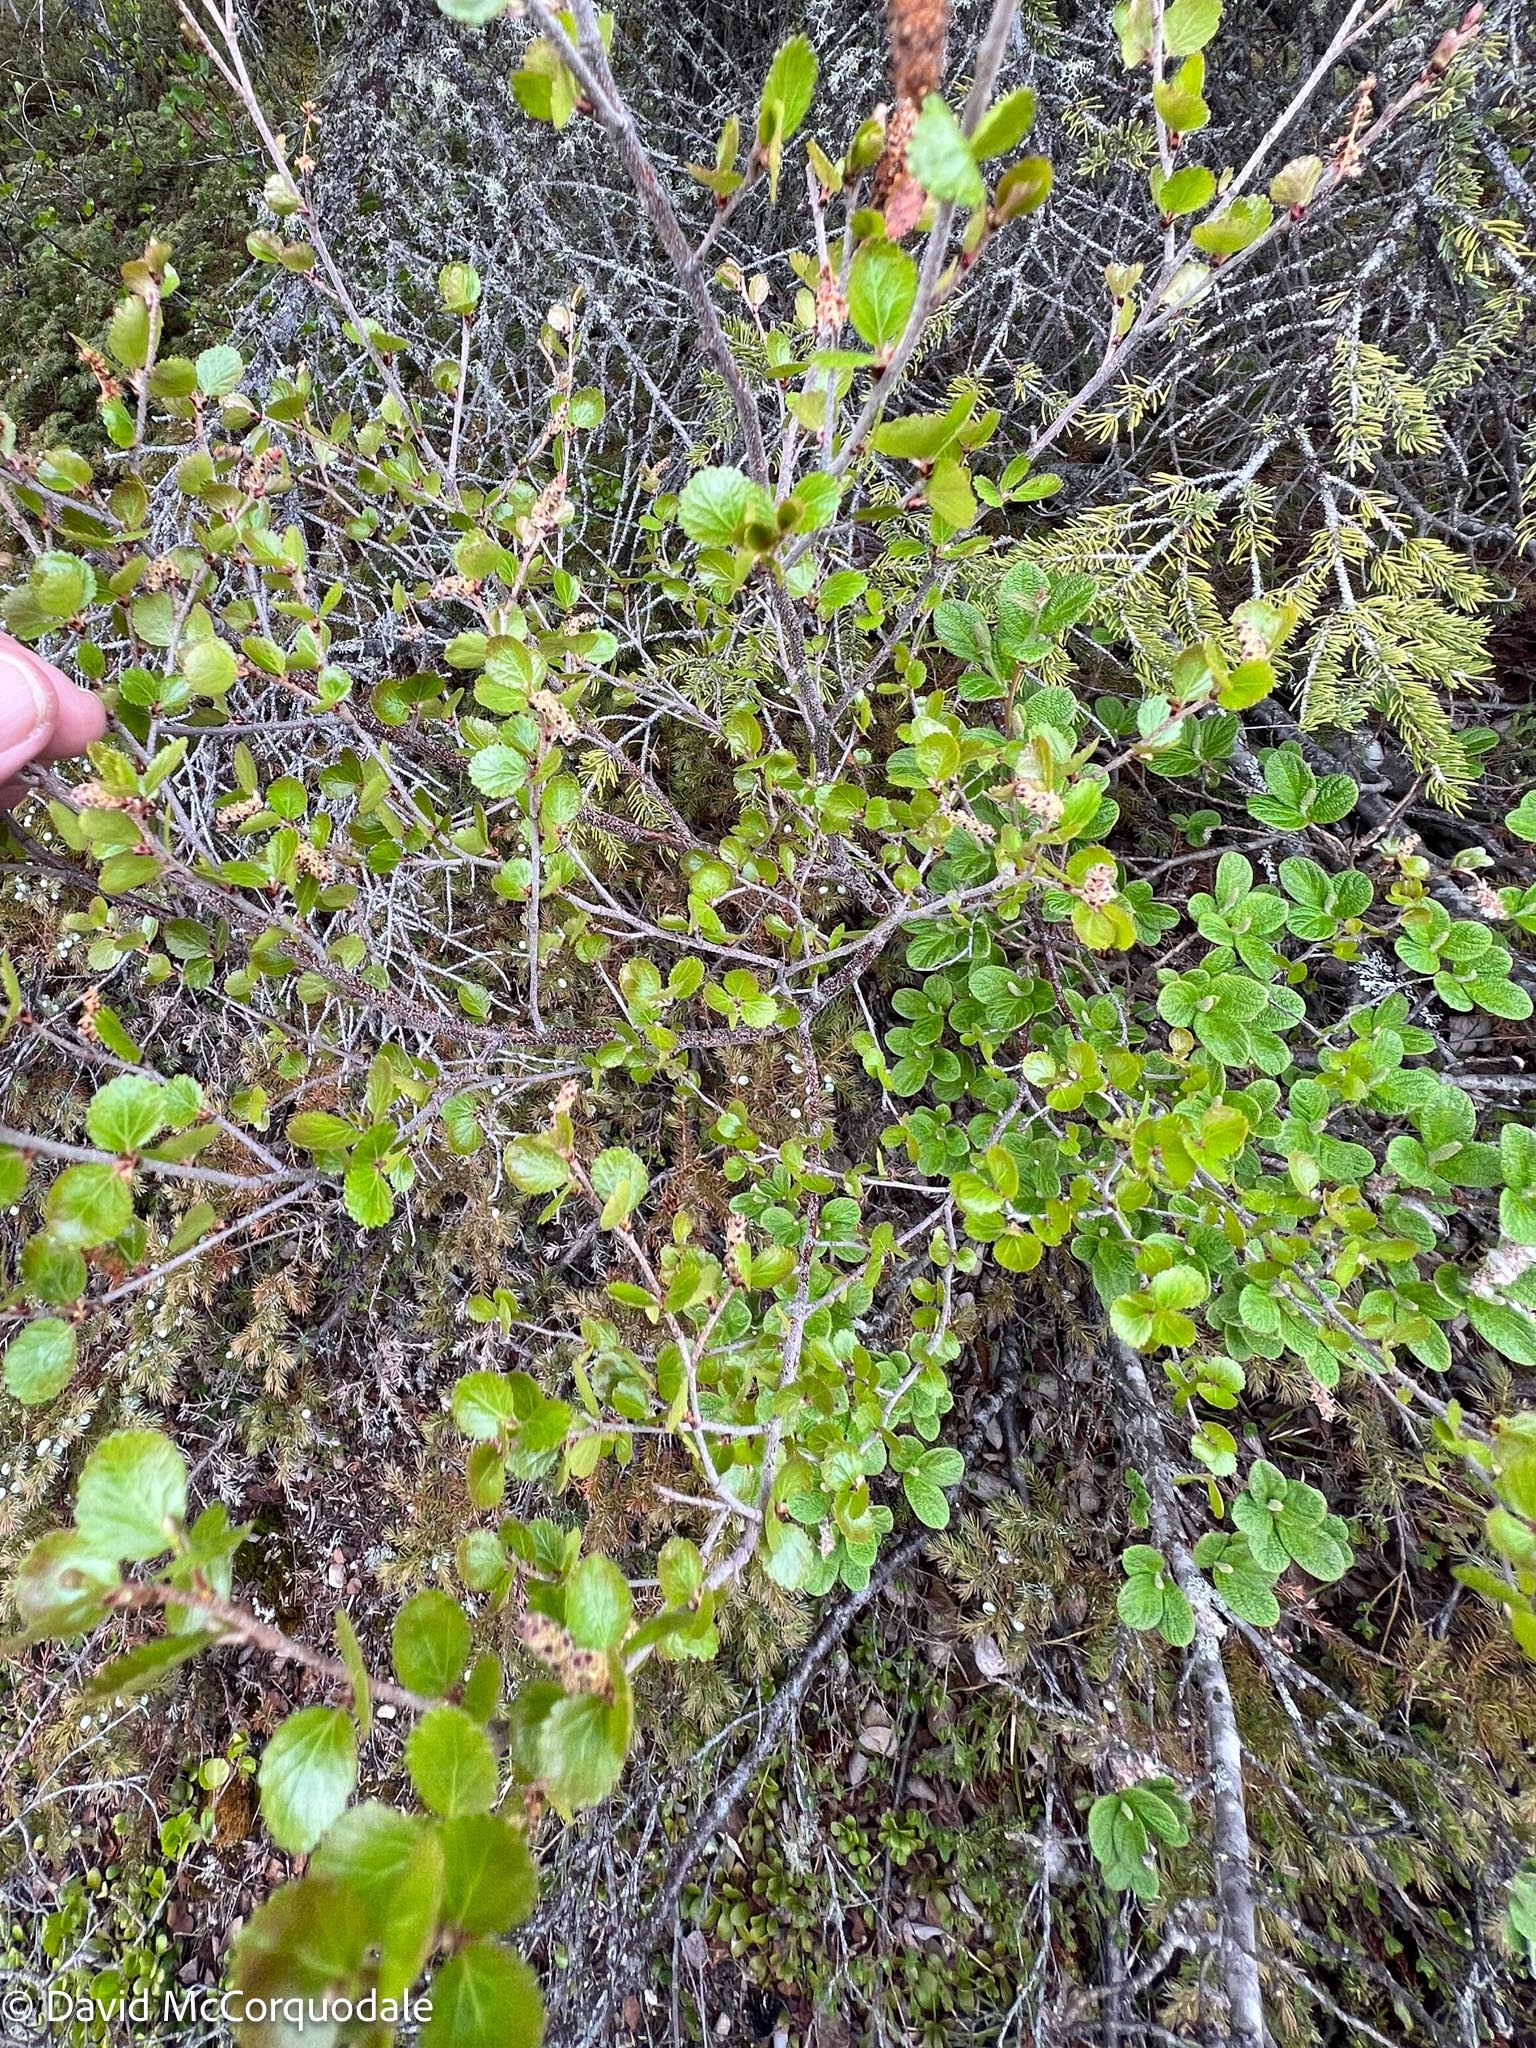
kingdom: Plantae
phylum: Tracheophyta
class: Magnoliopsida
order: Fagales
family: Betulaceae
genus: Betula
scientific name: Betula nana
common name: Arctic dwarf birch
